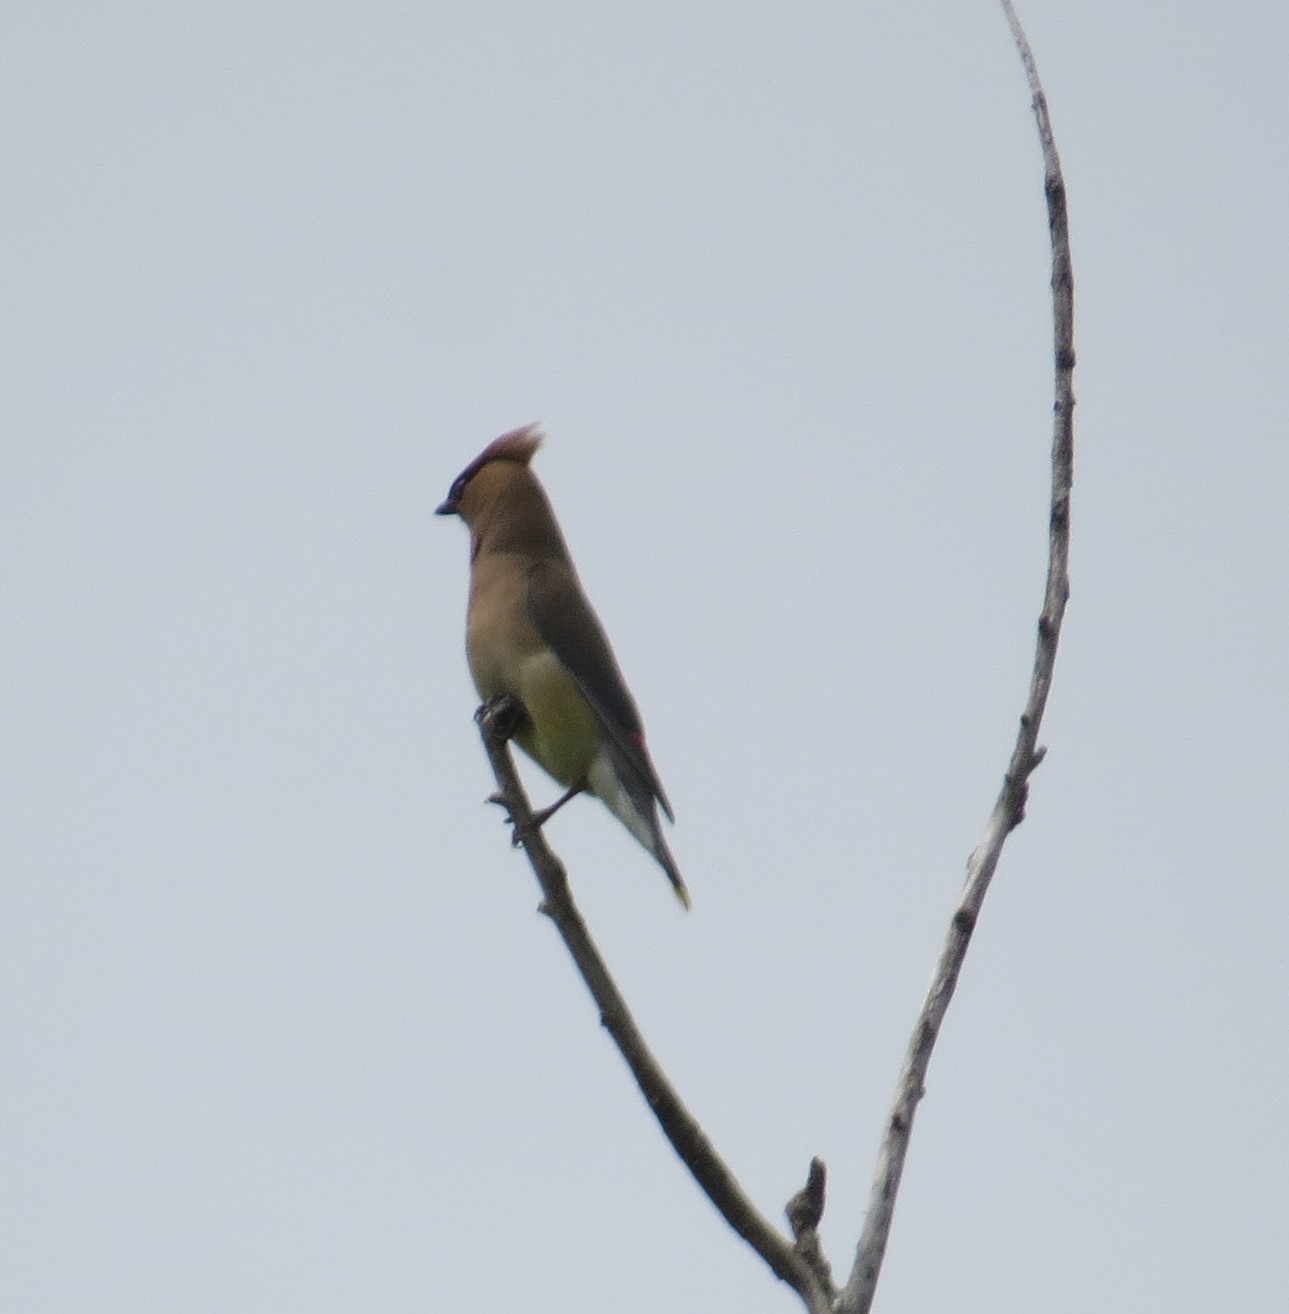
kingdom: Animalia
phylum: Chordata
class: Aves
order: Passeriformes
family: Bombycillidae
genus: Bombycilla
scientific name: Bombycilla cedrorum
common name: Cedar waxwing
